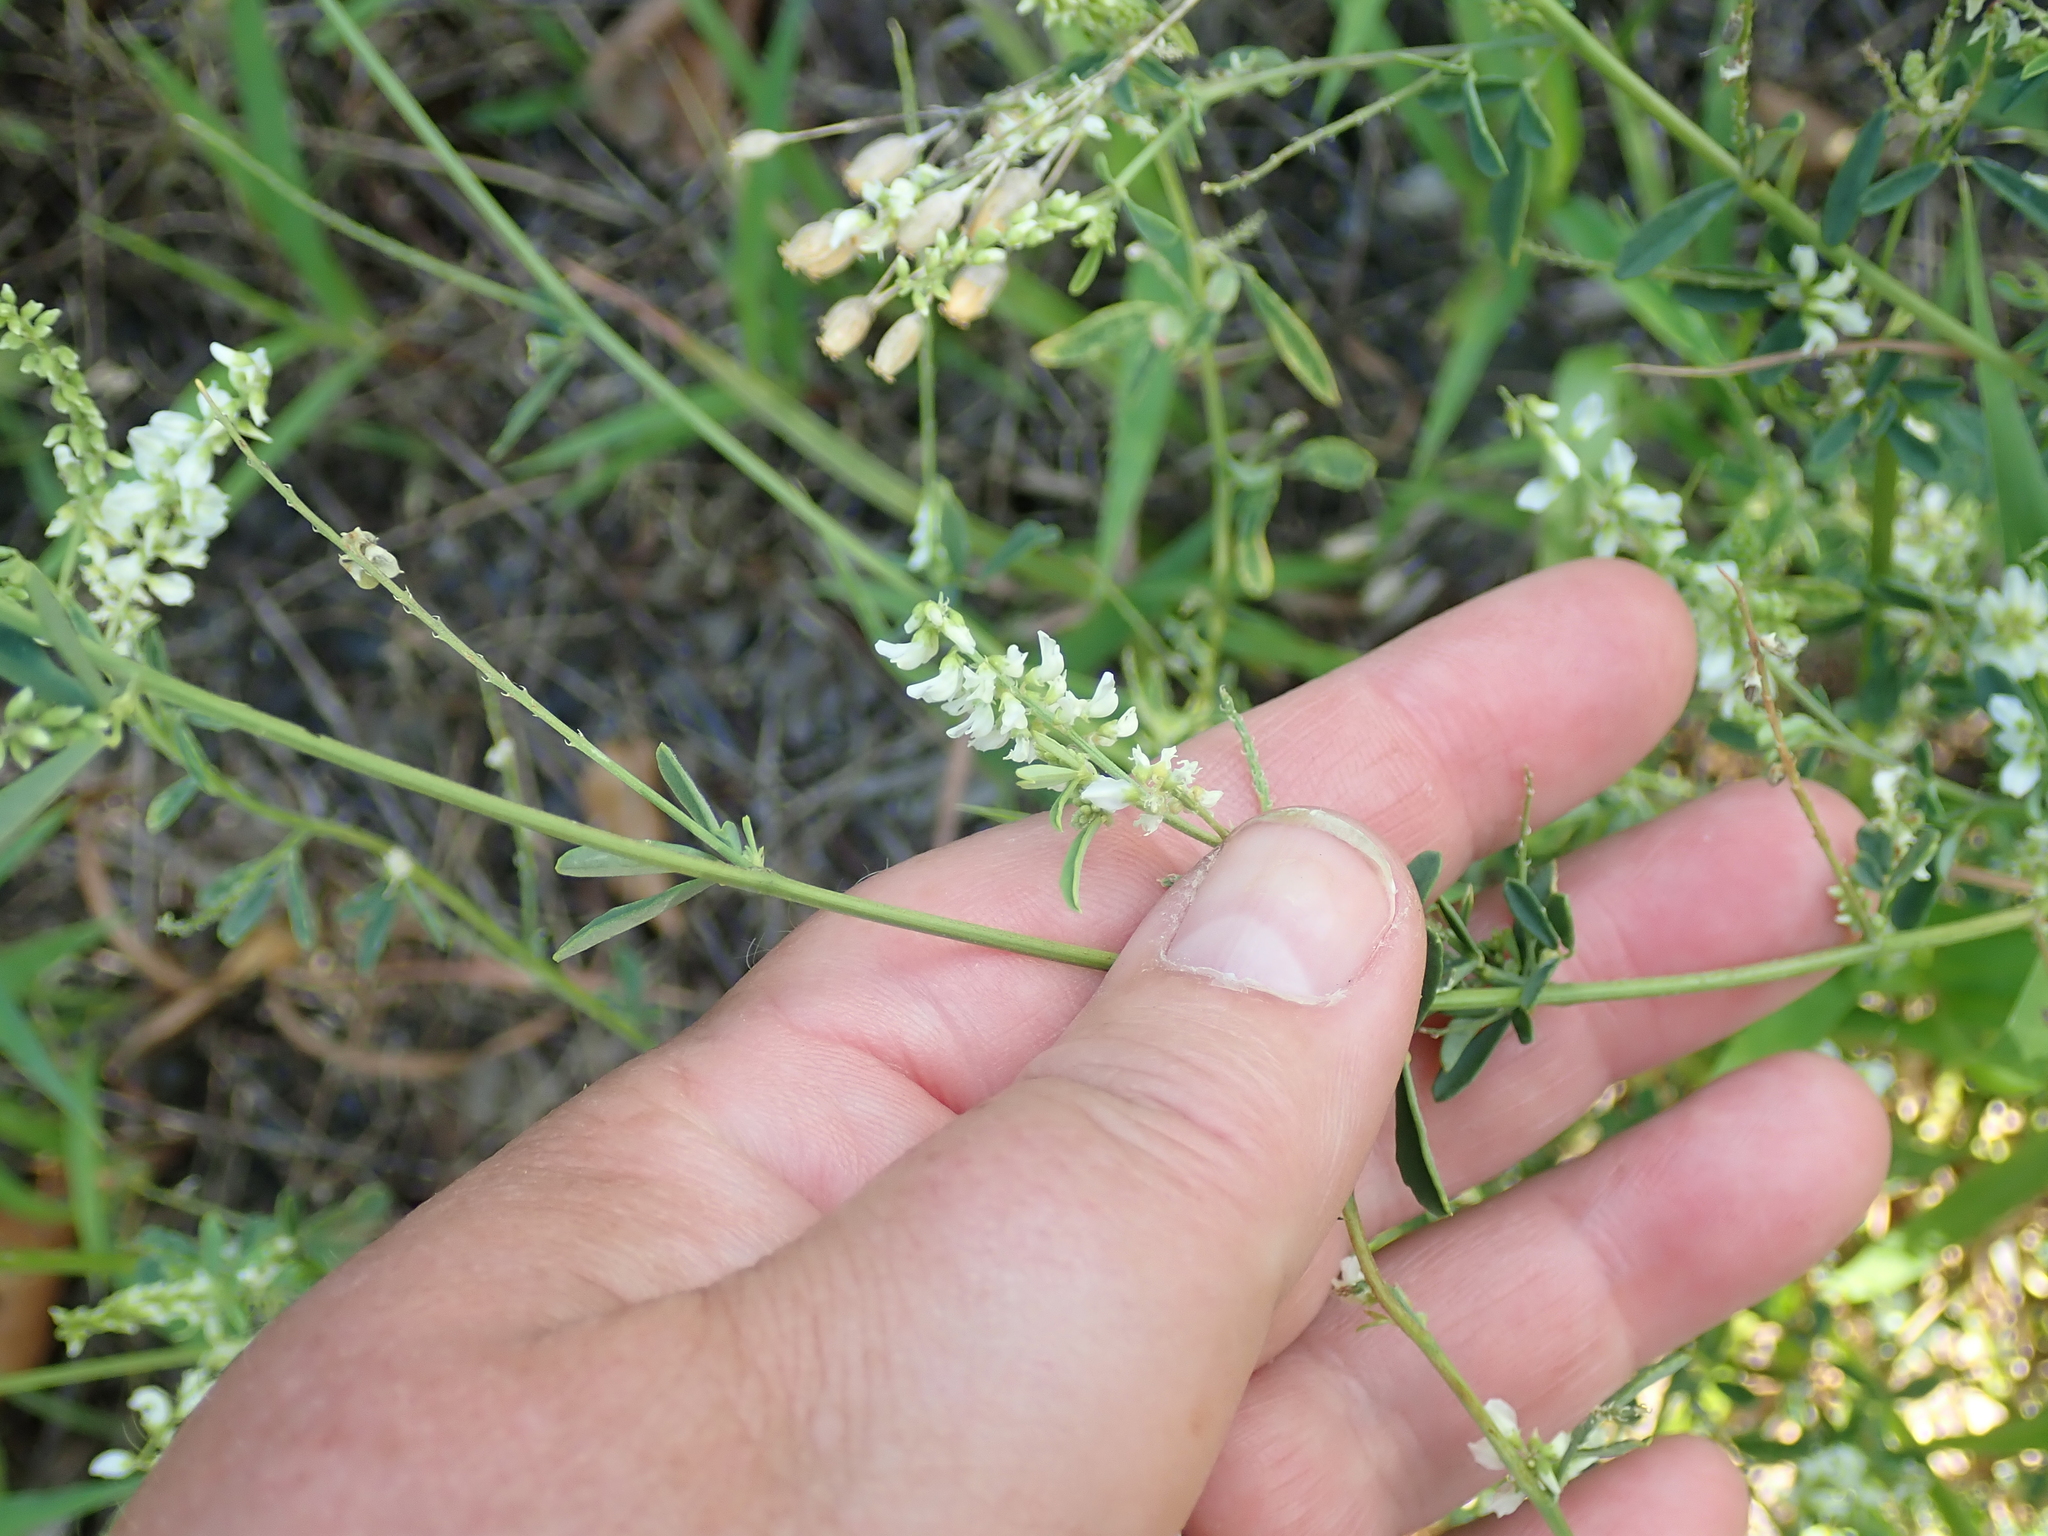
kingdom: Plantae
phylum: Tracheophyta
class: Magnoliopsida
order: Fabales
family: Fabaceae
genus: Melilotus
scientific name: Melilotus albus
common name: White melilot
